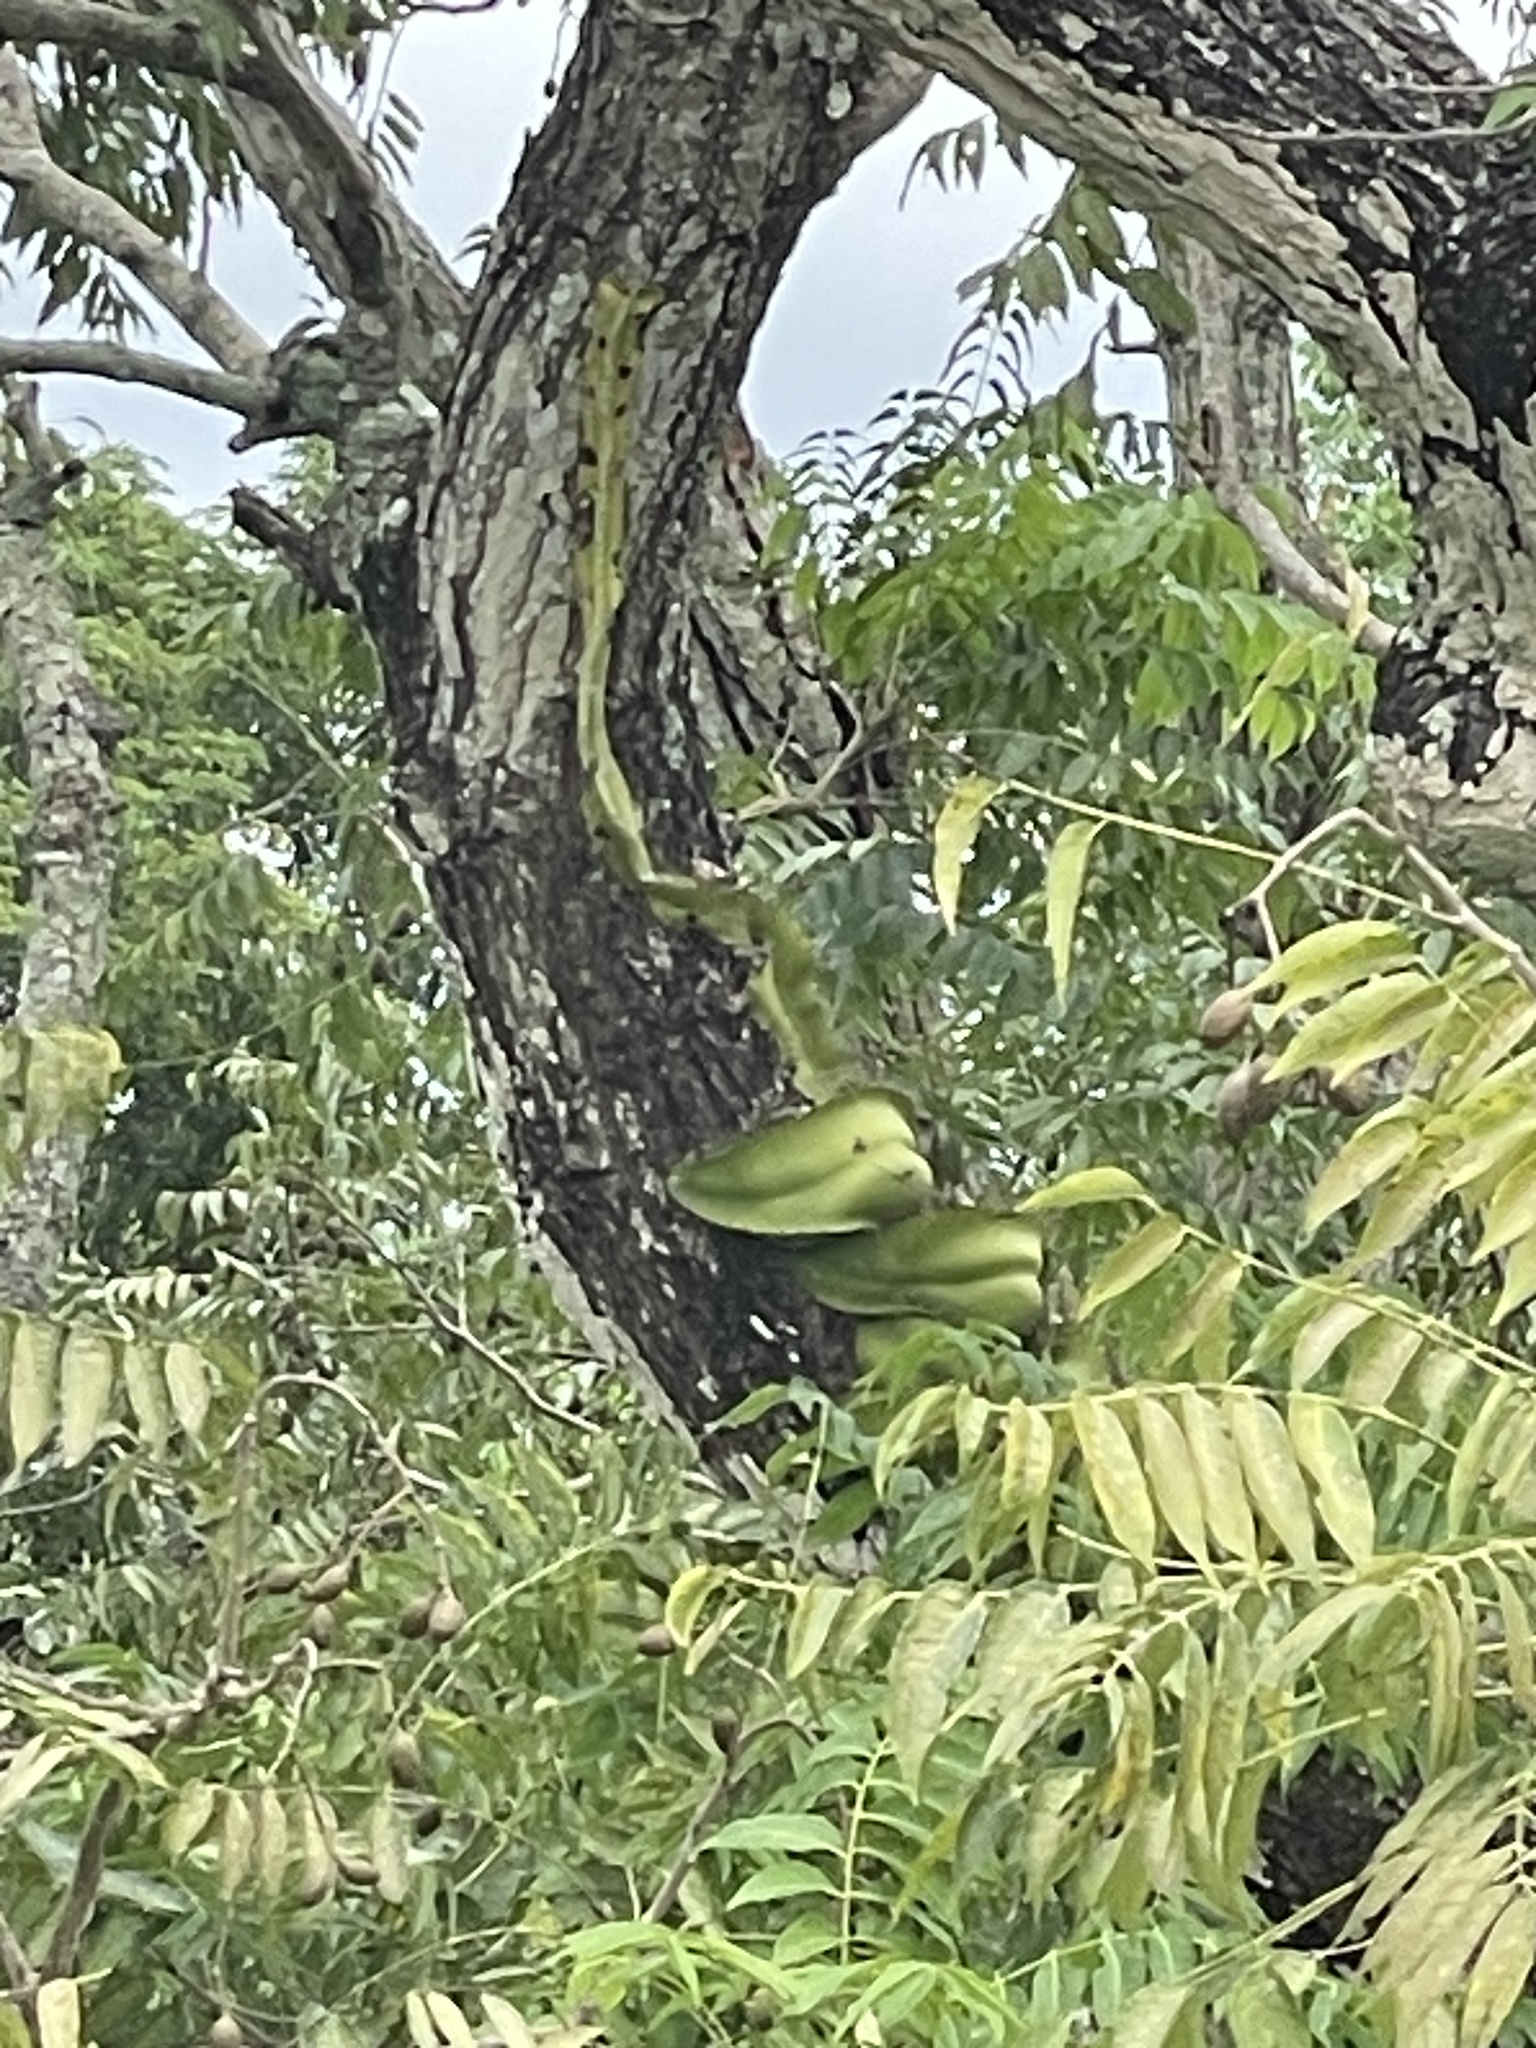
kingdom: Plantae
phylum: Tracheophyta
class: Magnoliopsida
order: Caryophyllales
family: Cactaceae
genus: Deamia
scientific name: Deamia testudo
